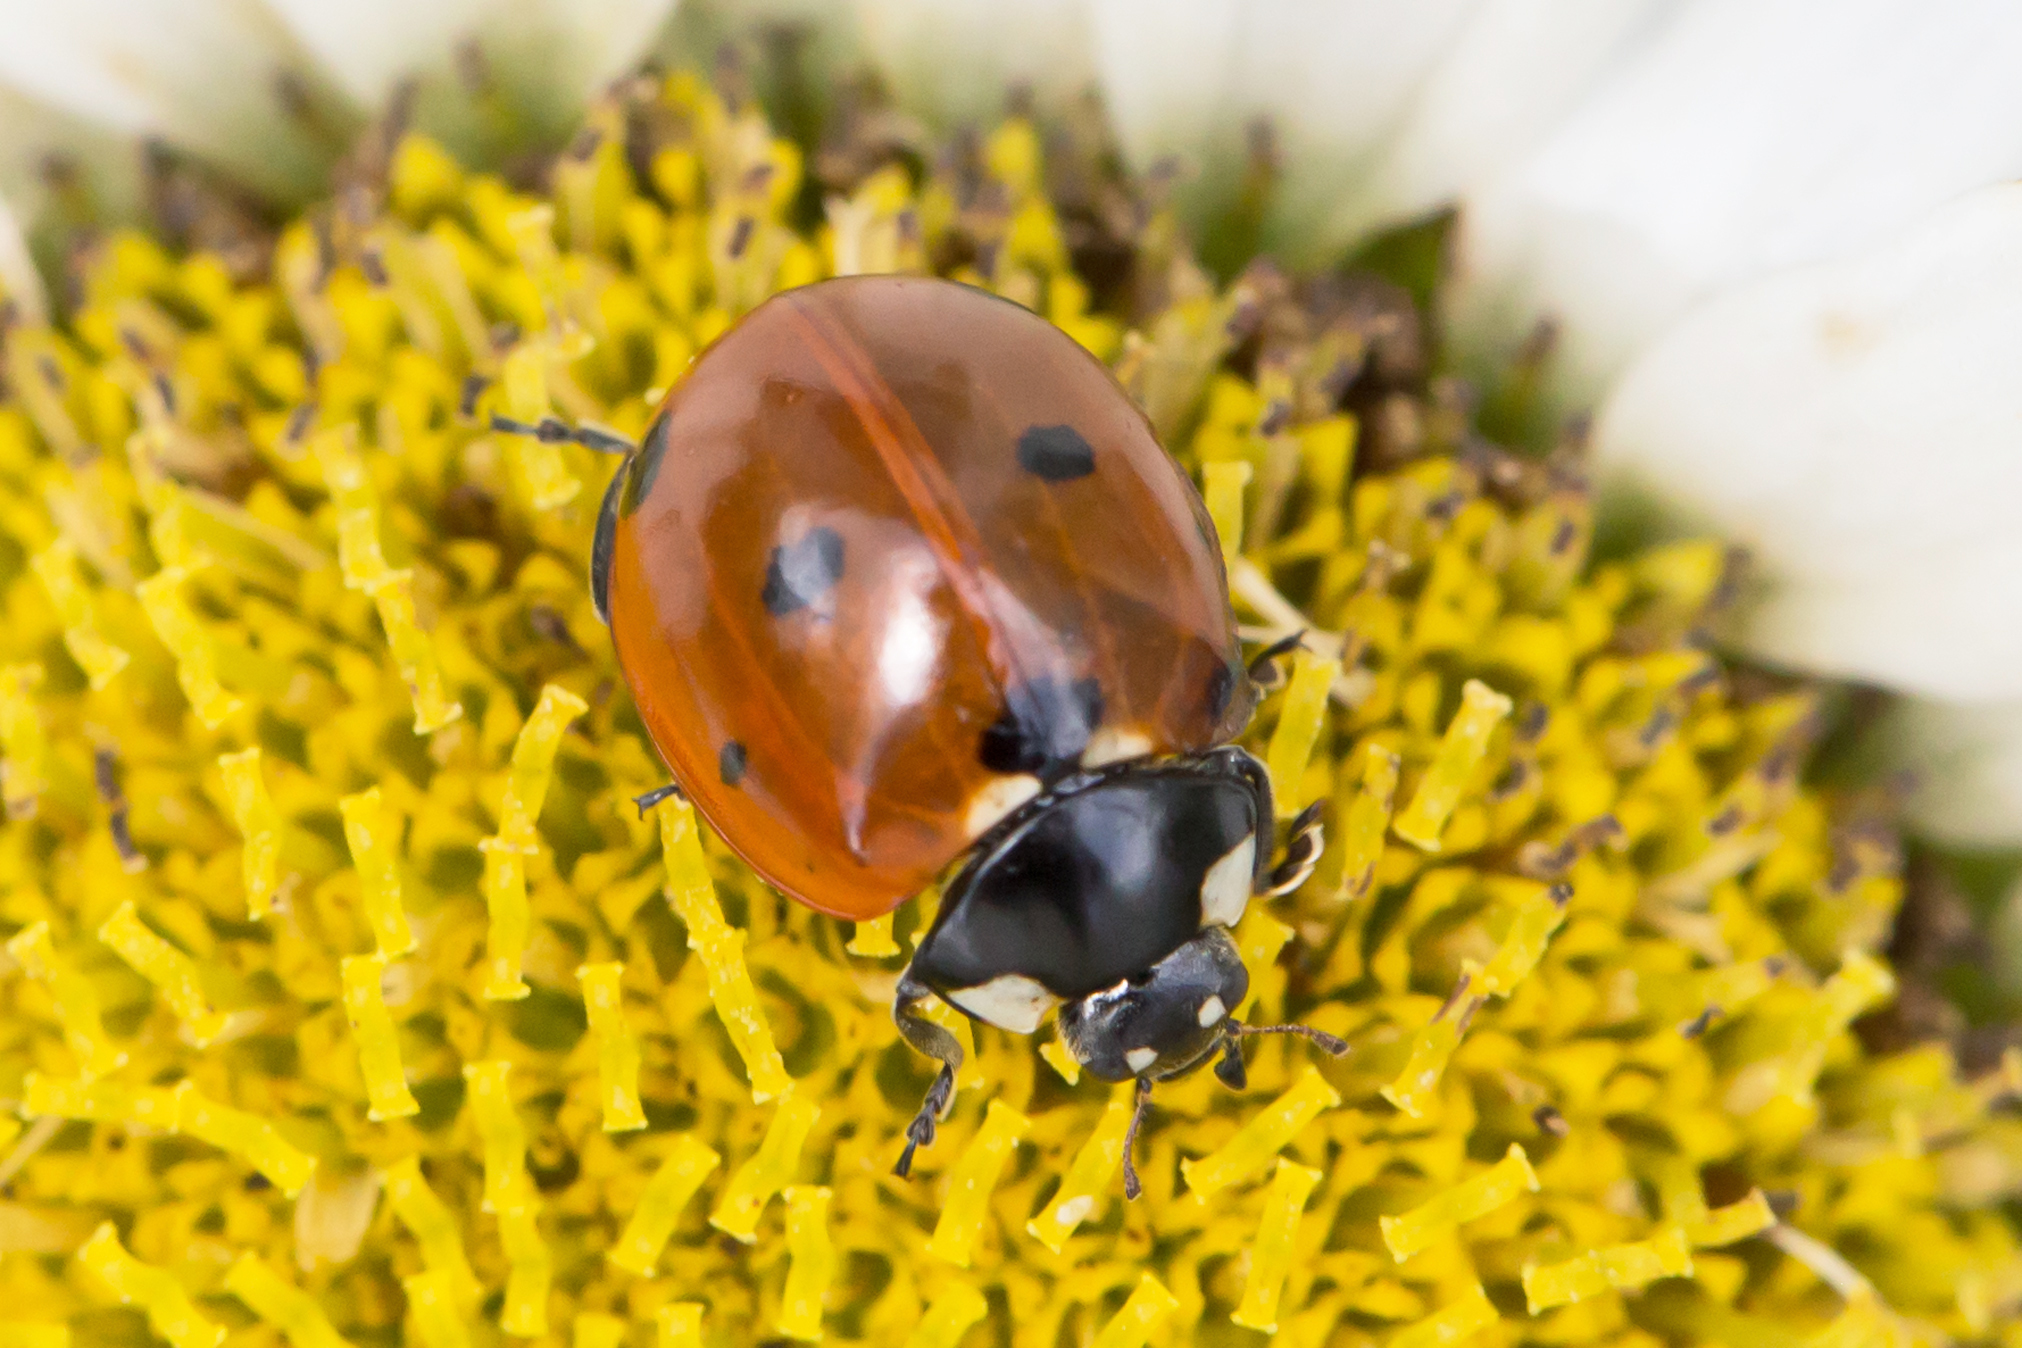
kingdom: Animalia
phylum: Arthropoda
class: Insecta
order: Coleoptera
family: Coccinellidae
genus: Coccinella
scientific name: Coccinella septempunctata
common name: Sevenspotted lady beetle
